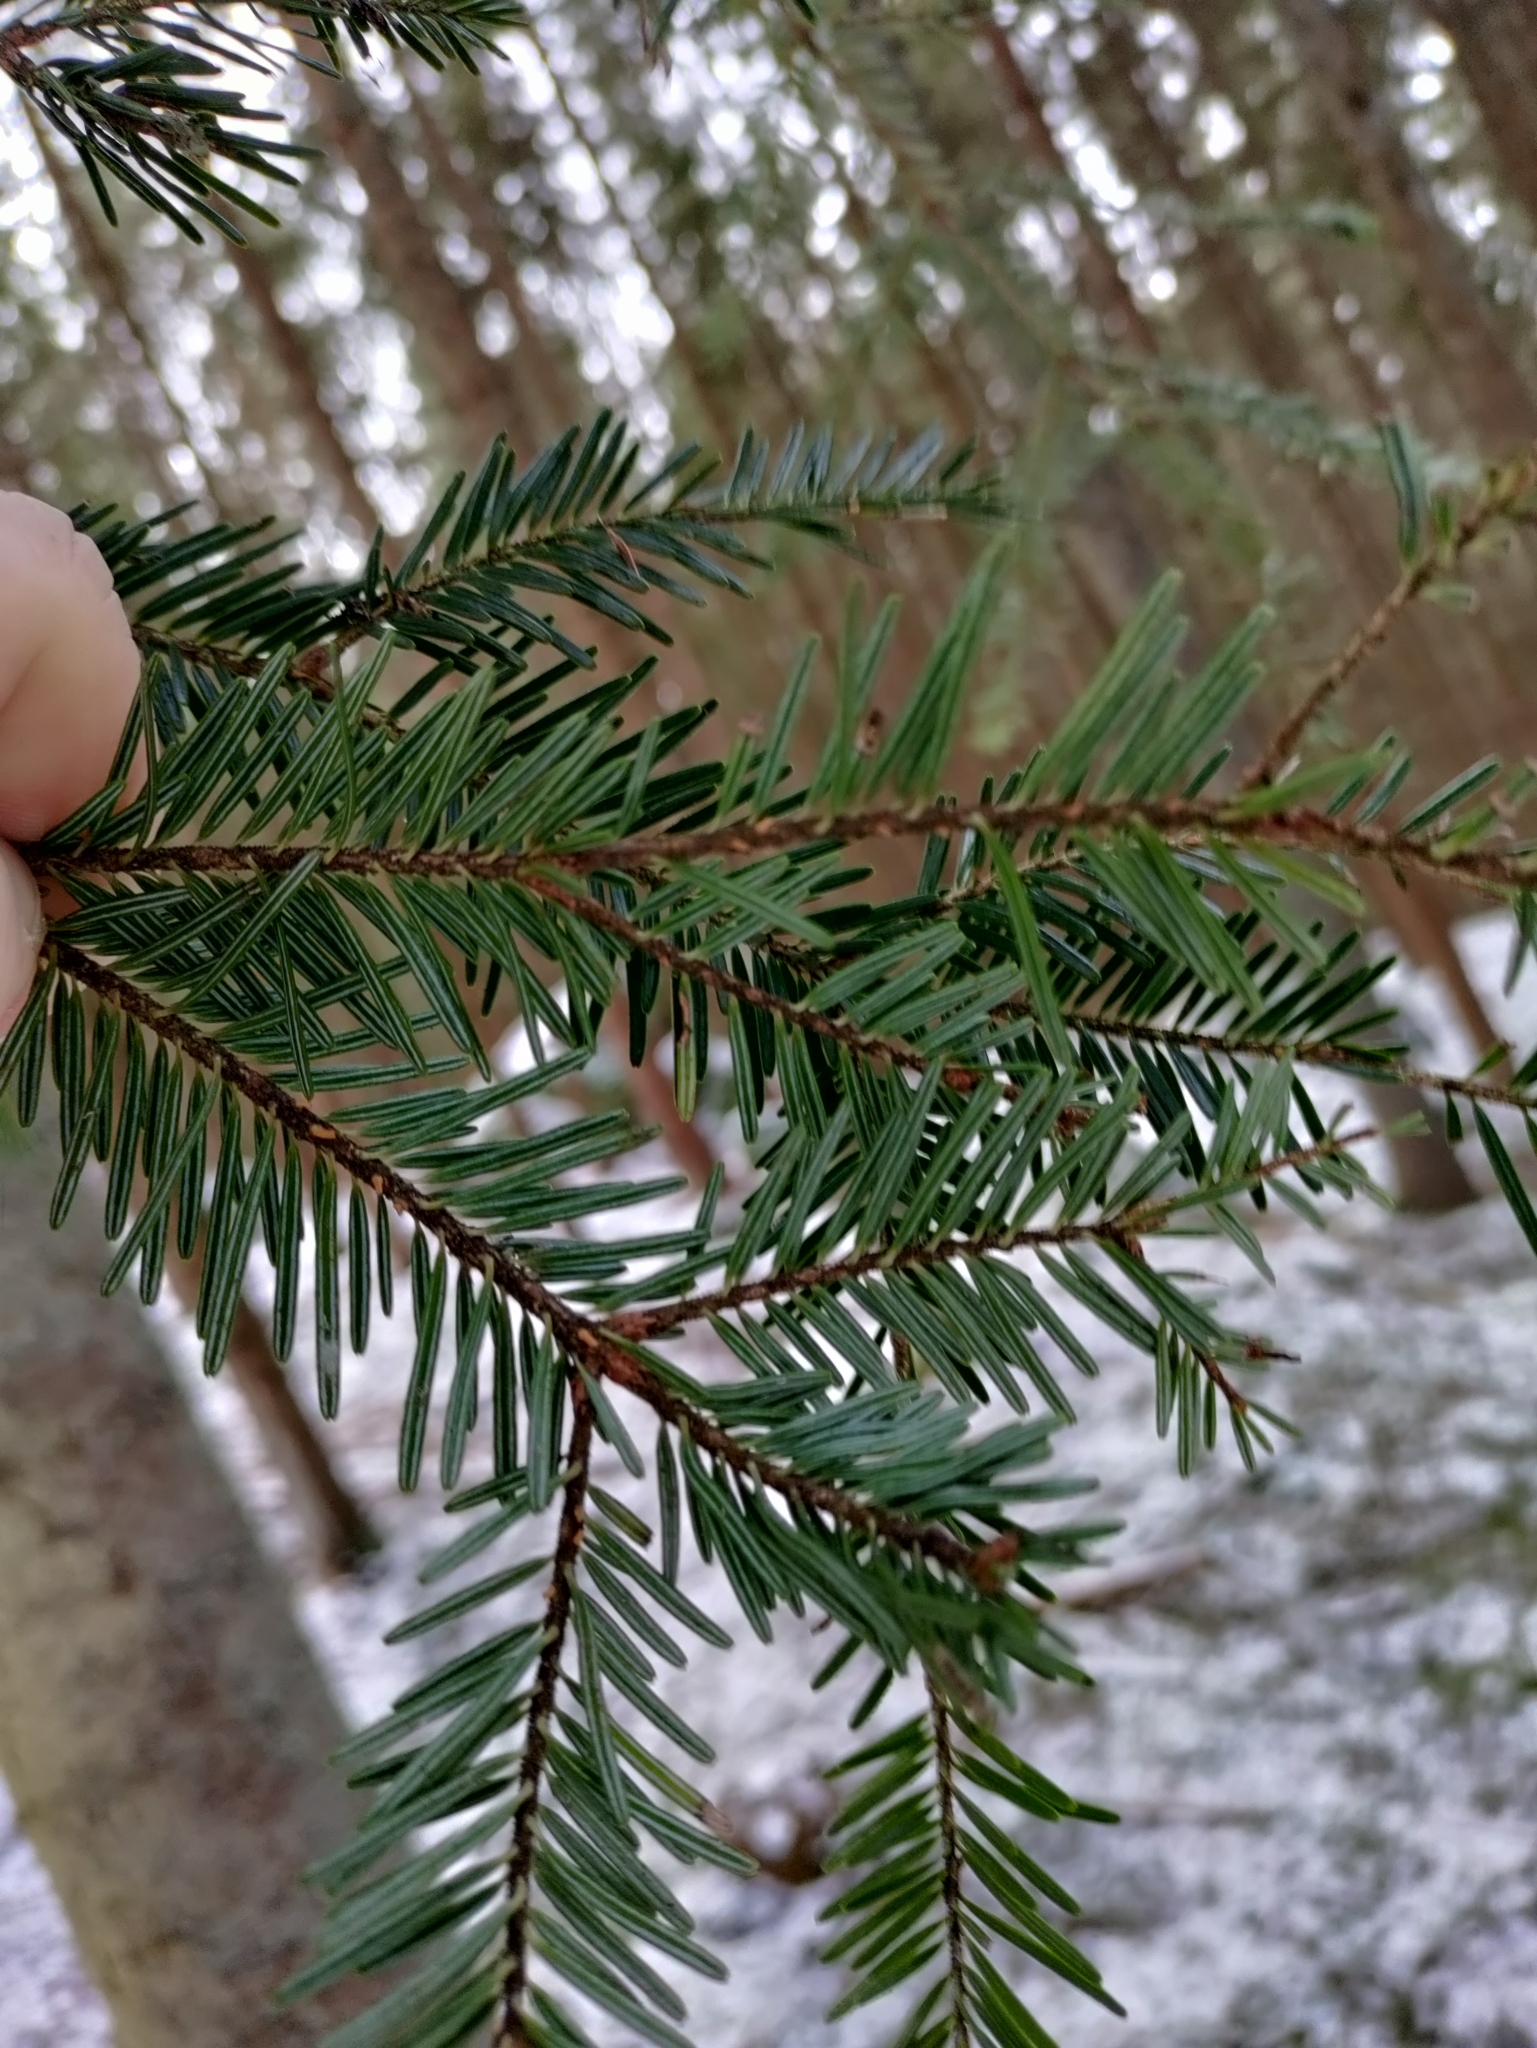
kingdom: Plantae
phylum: Tracheophyta
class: Pinopsida
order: Pinales
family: Pinaceae
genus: Abies
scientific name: Abies alba
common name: Silver fir
